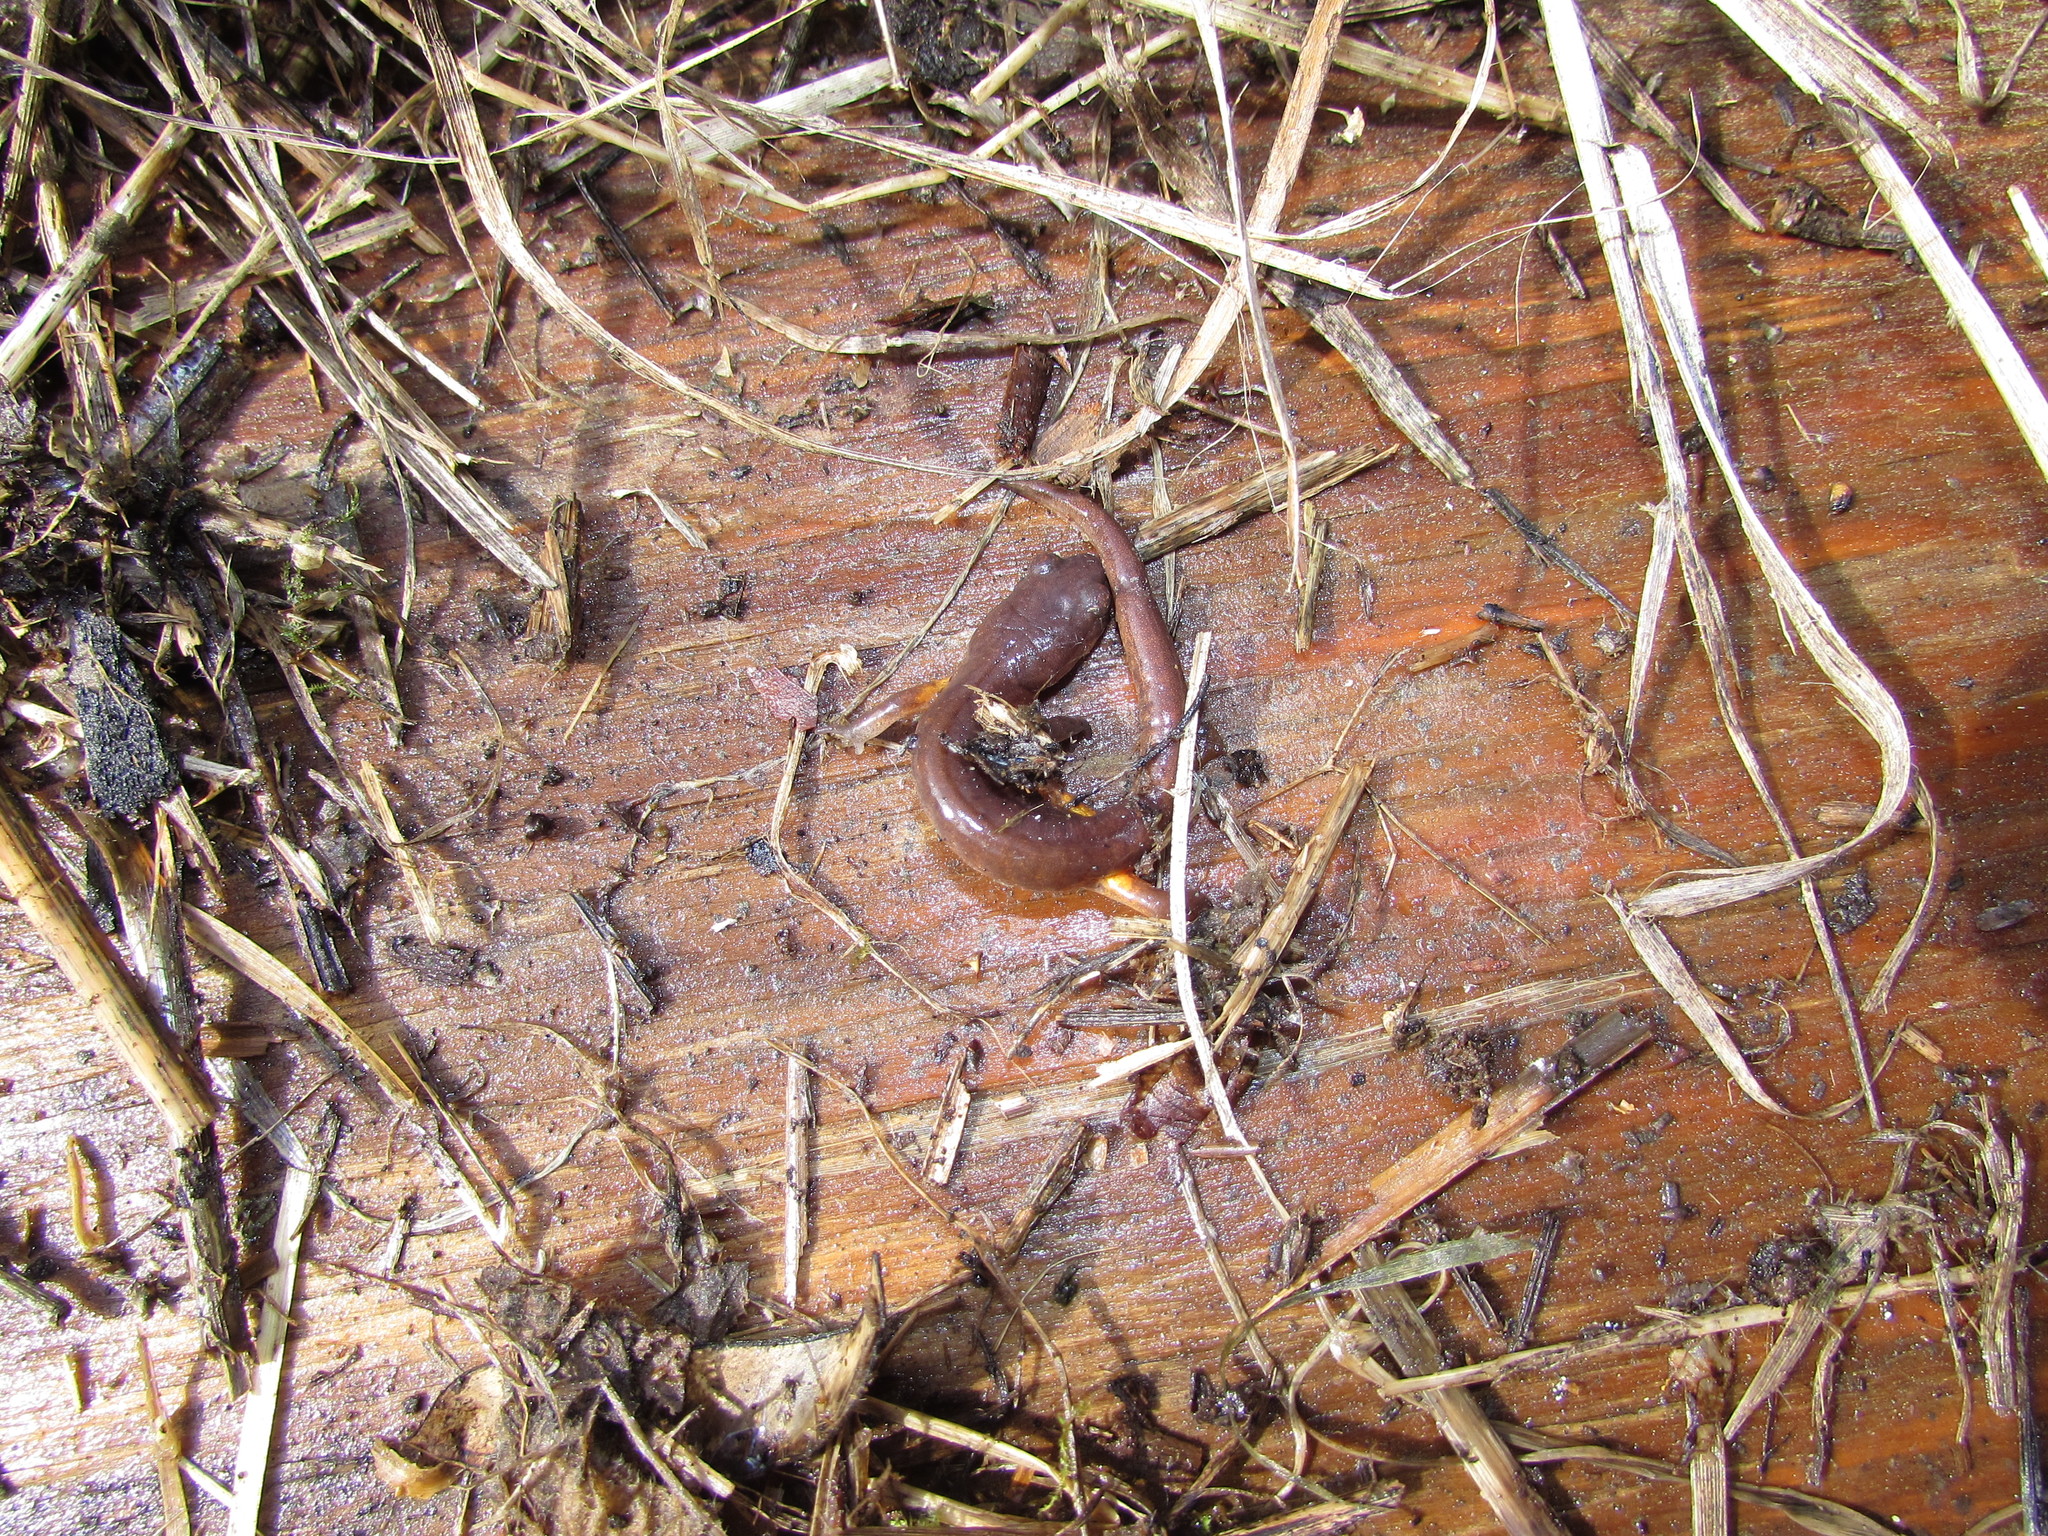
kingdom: Animalia
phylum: Chordata
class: Amphibia
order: Caudata
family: Plethodontidae
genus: Ensatina
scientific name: Ensatina eschscholtzii
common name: Ensatina
